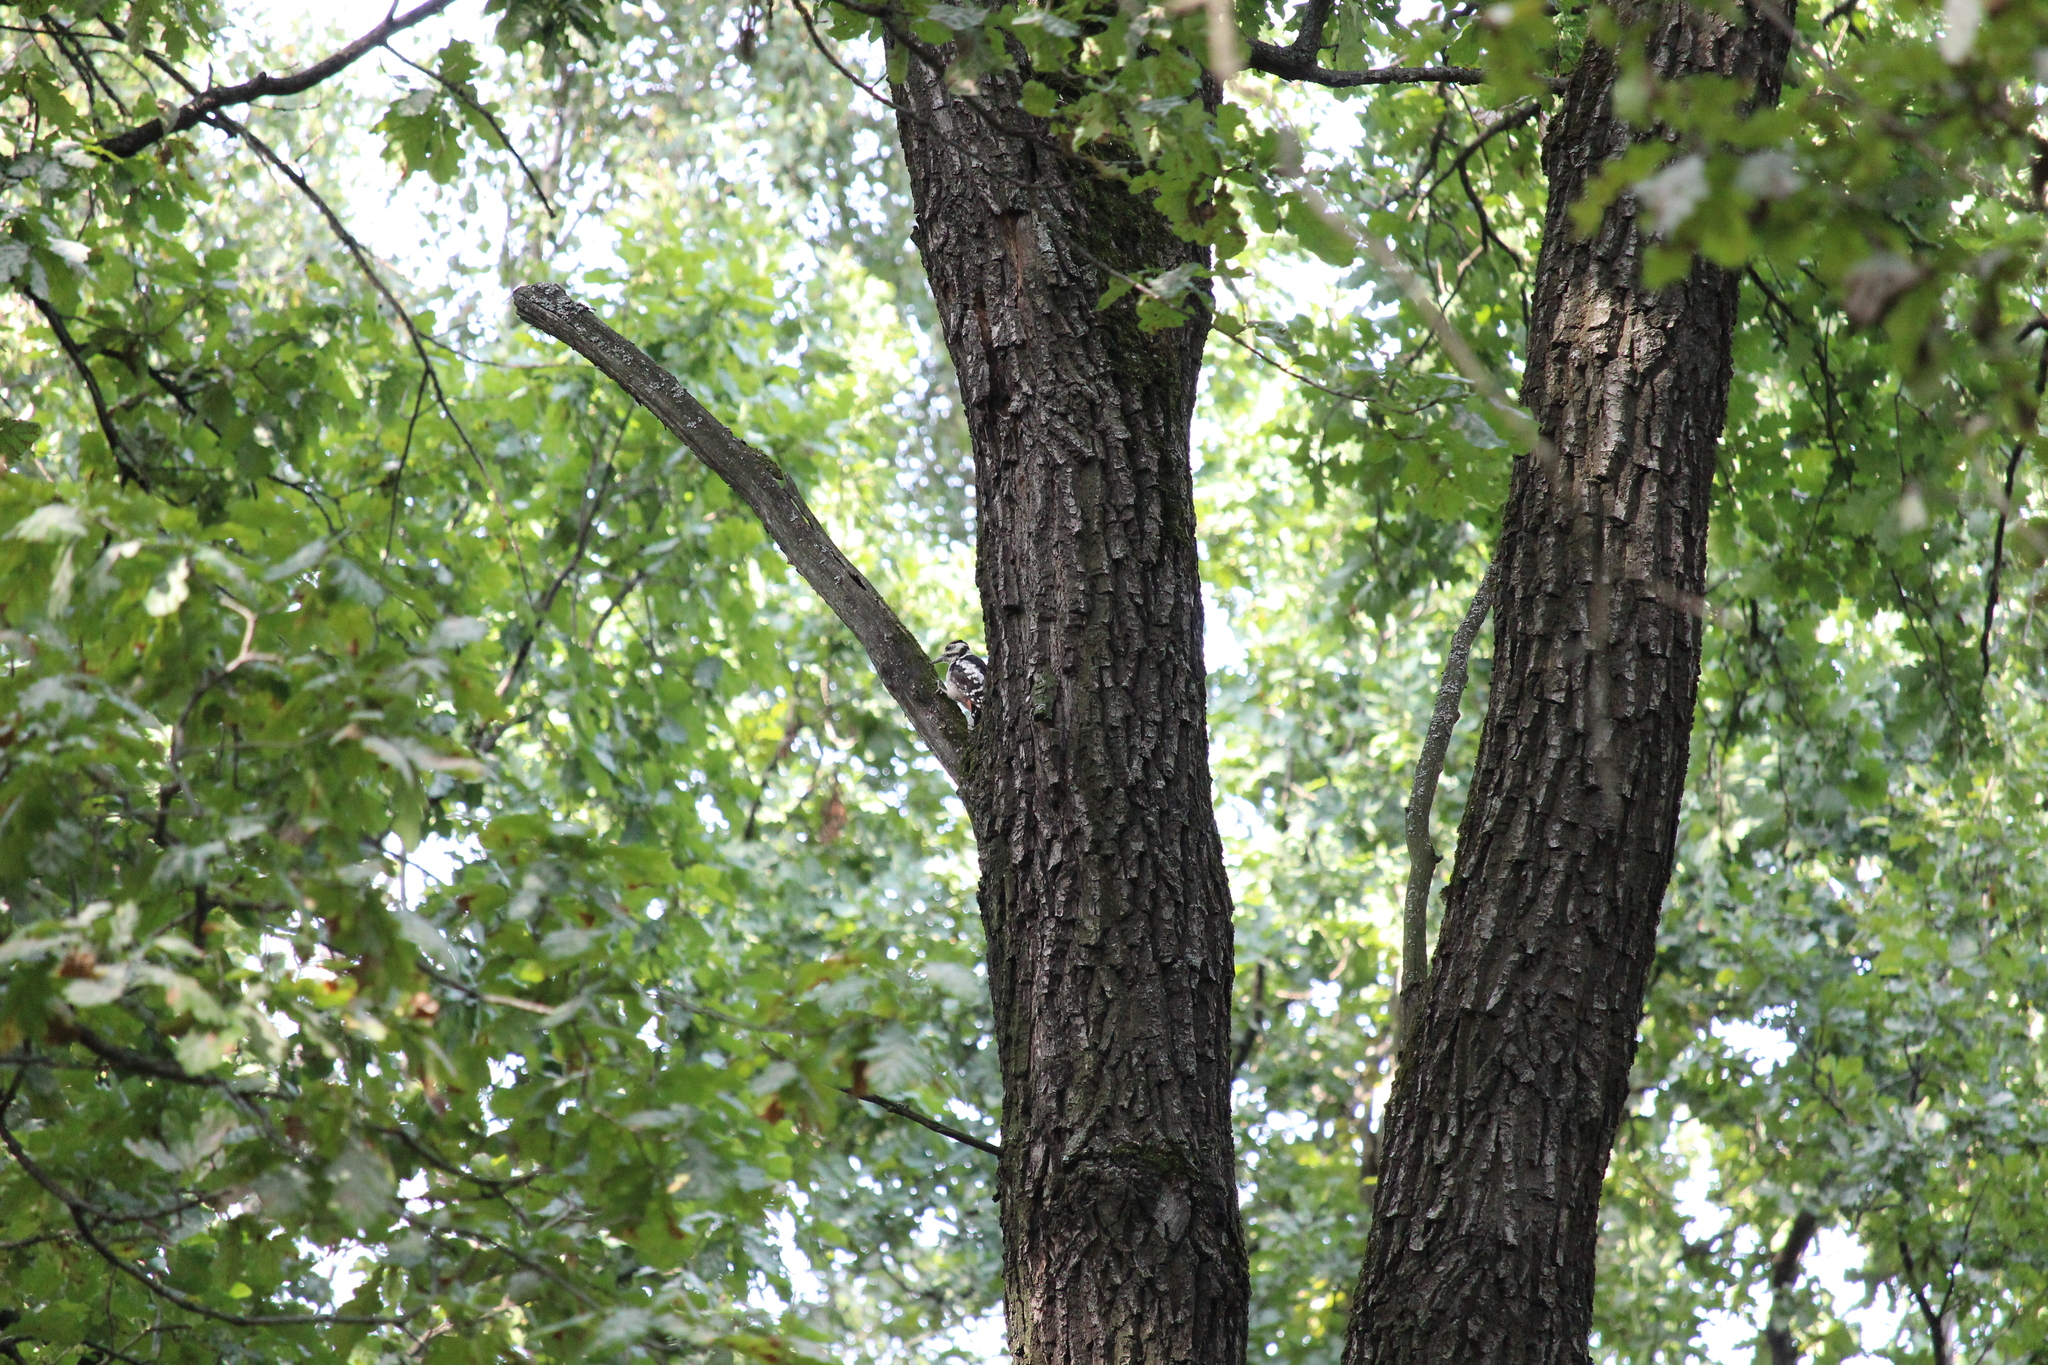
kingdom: Animalia
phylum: Chordata
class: Aves
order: Piciformes
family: Picidae
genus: Dendrocopos
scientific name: Dendrocopos major
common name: Great spotted woodpecker
